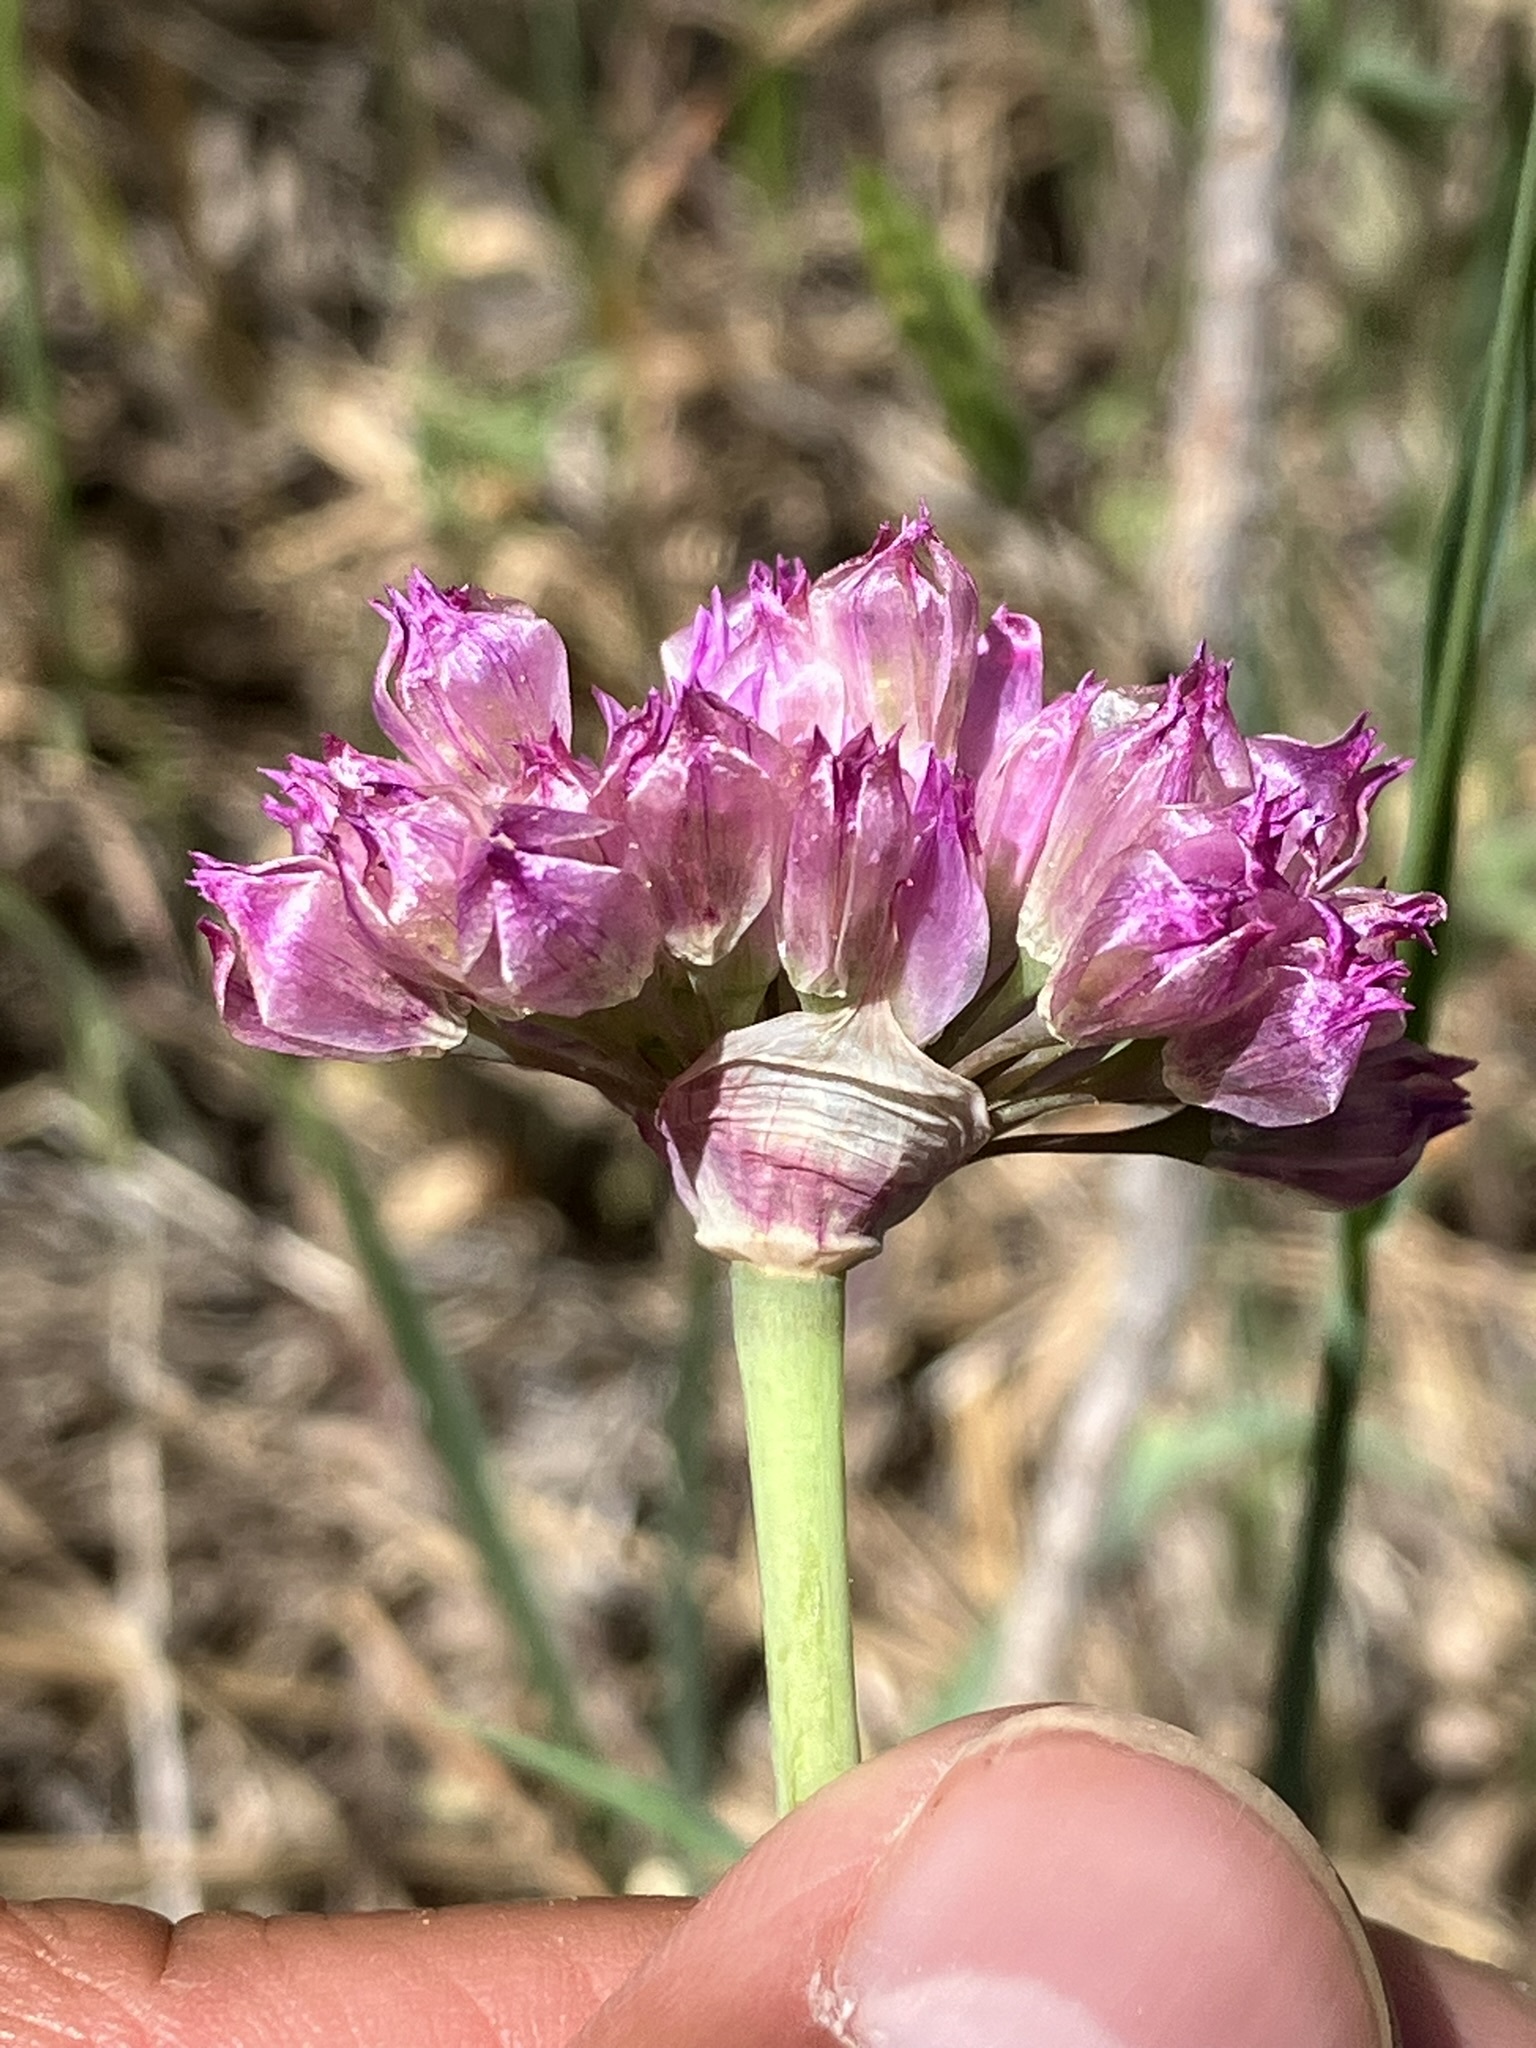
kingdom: Plantae
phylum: Tracheophyta
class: Liliopsida
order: Asparagales
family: Amaryllidaceae
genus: Allium
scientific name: Allium serra
